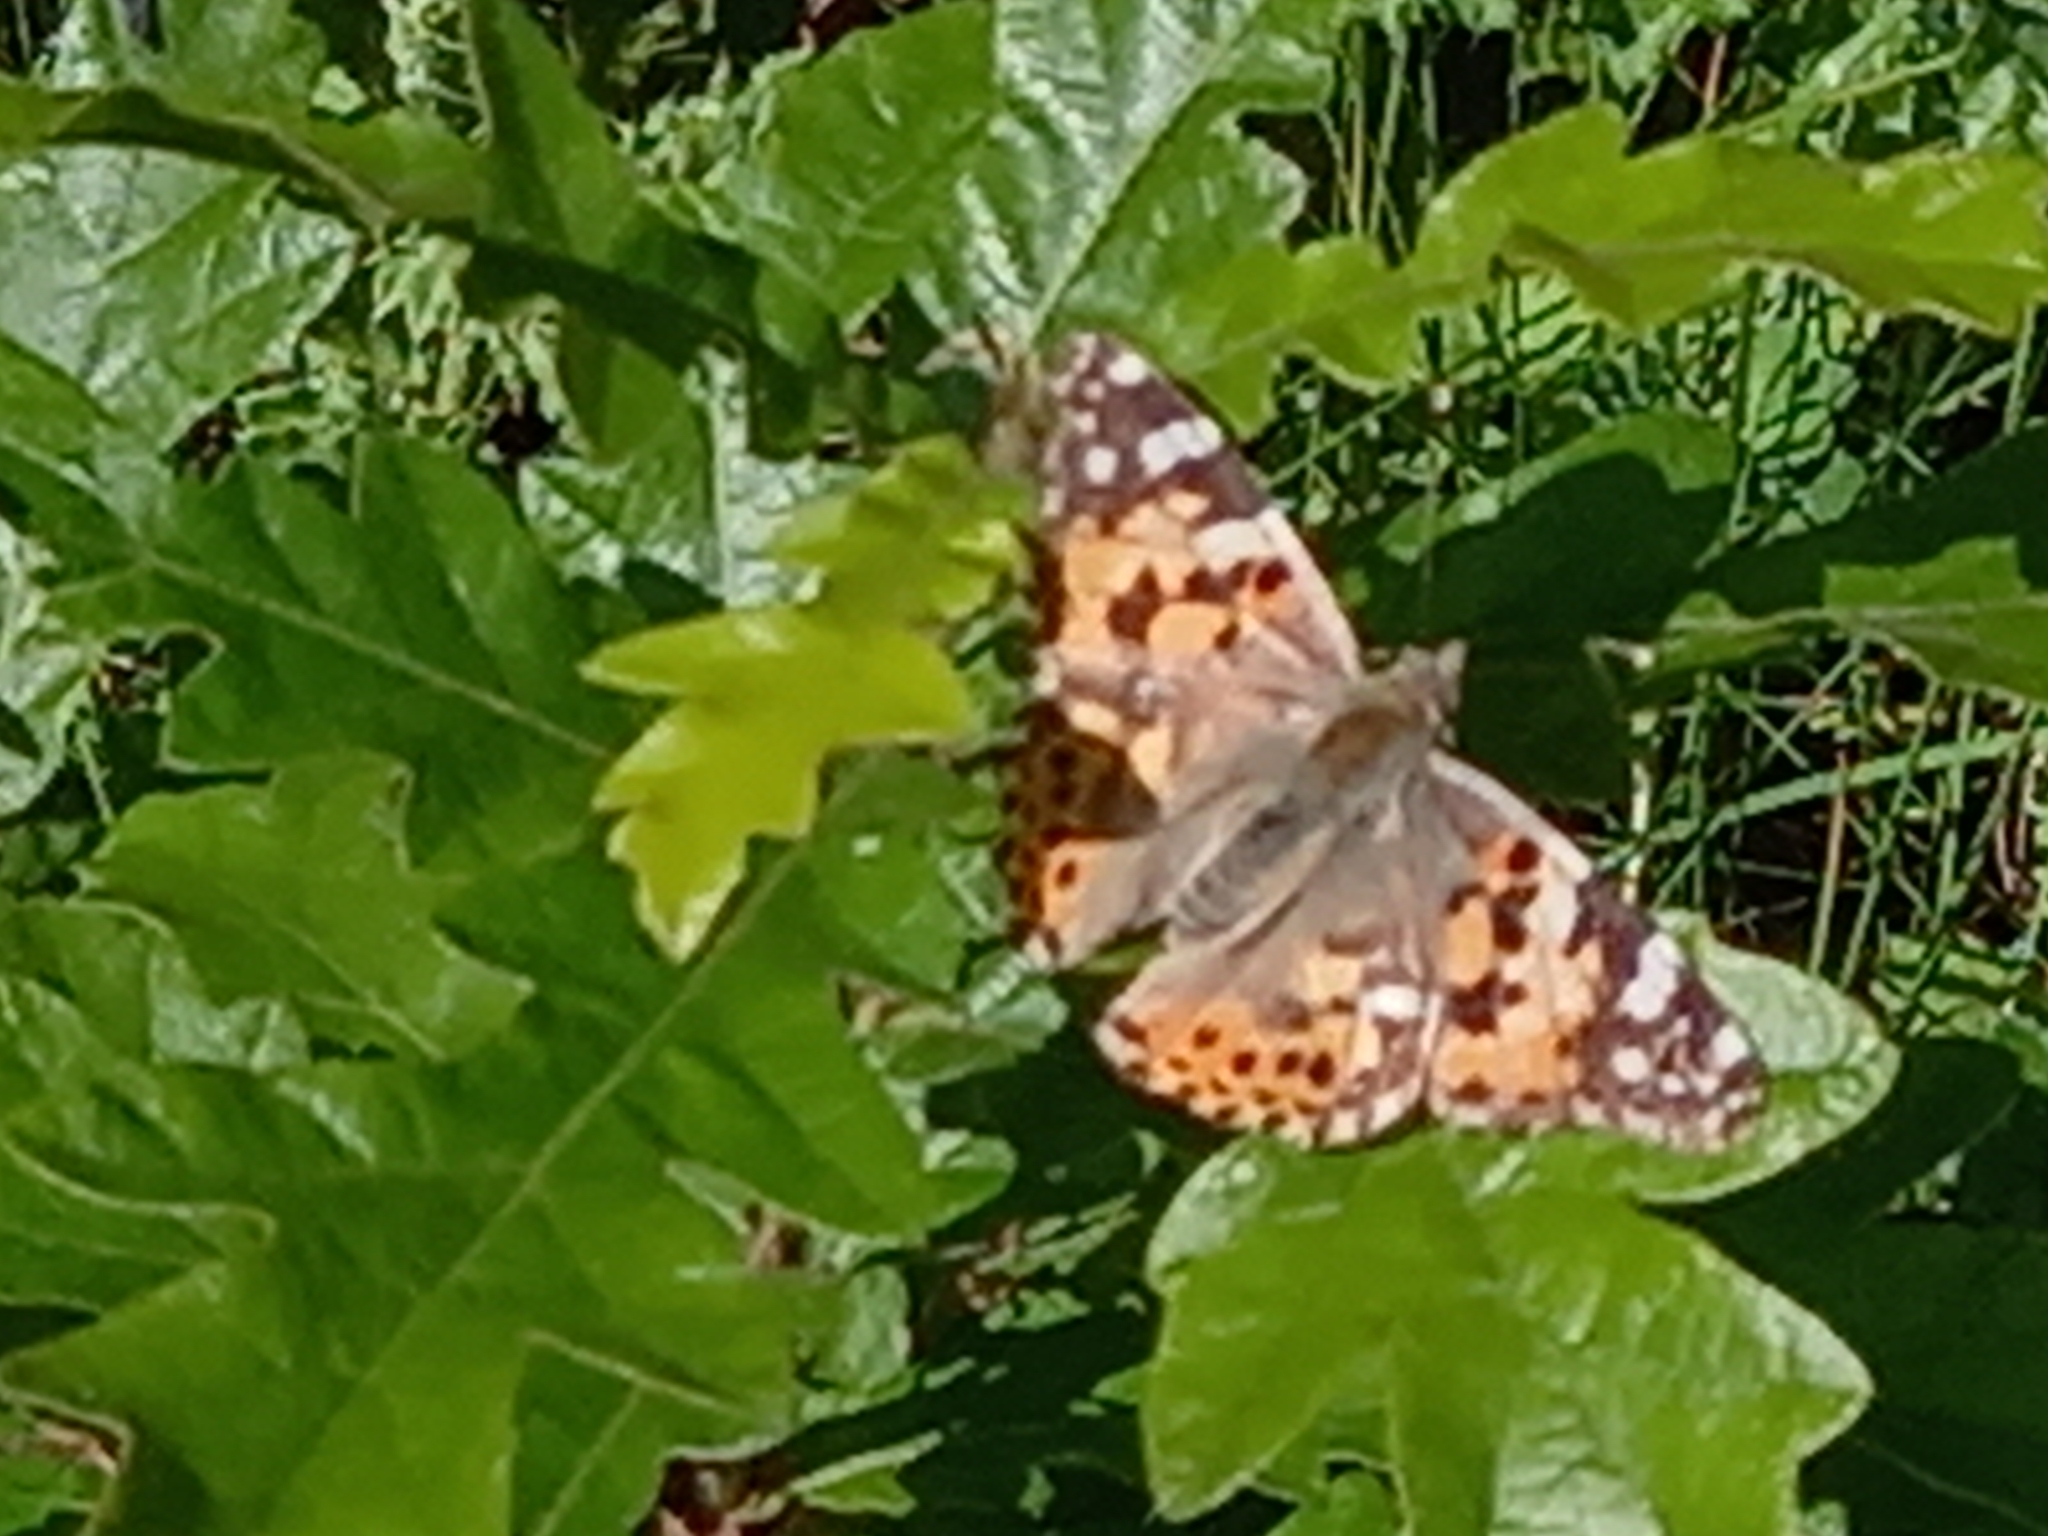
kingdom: Animalia
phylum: Arthropoda
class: Insecta
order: Lepidoptera
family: Nymphalidae
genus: Vanessa
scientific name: Vanessa cardui
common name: Painted lady
